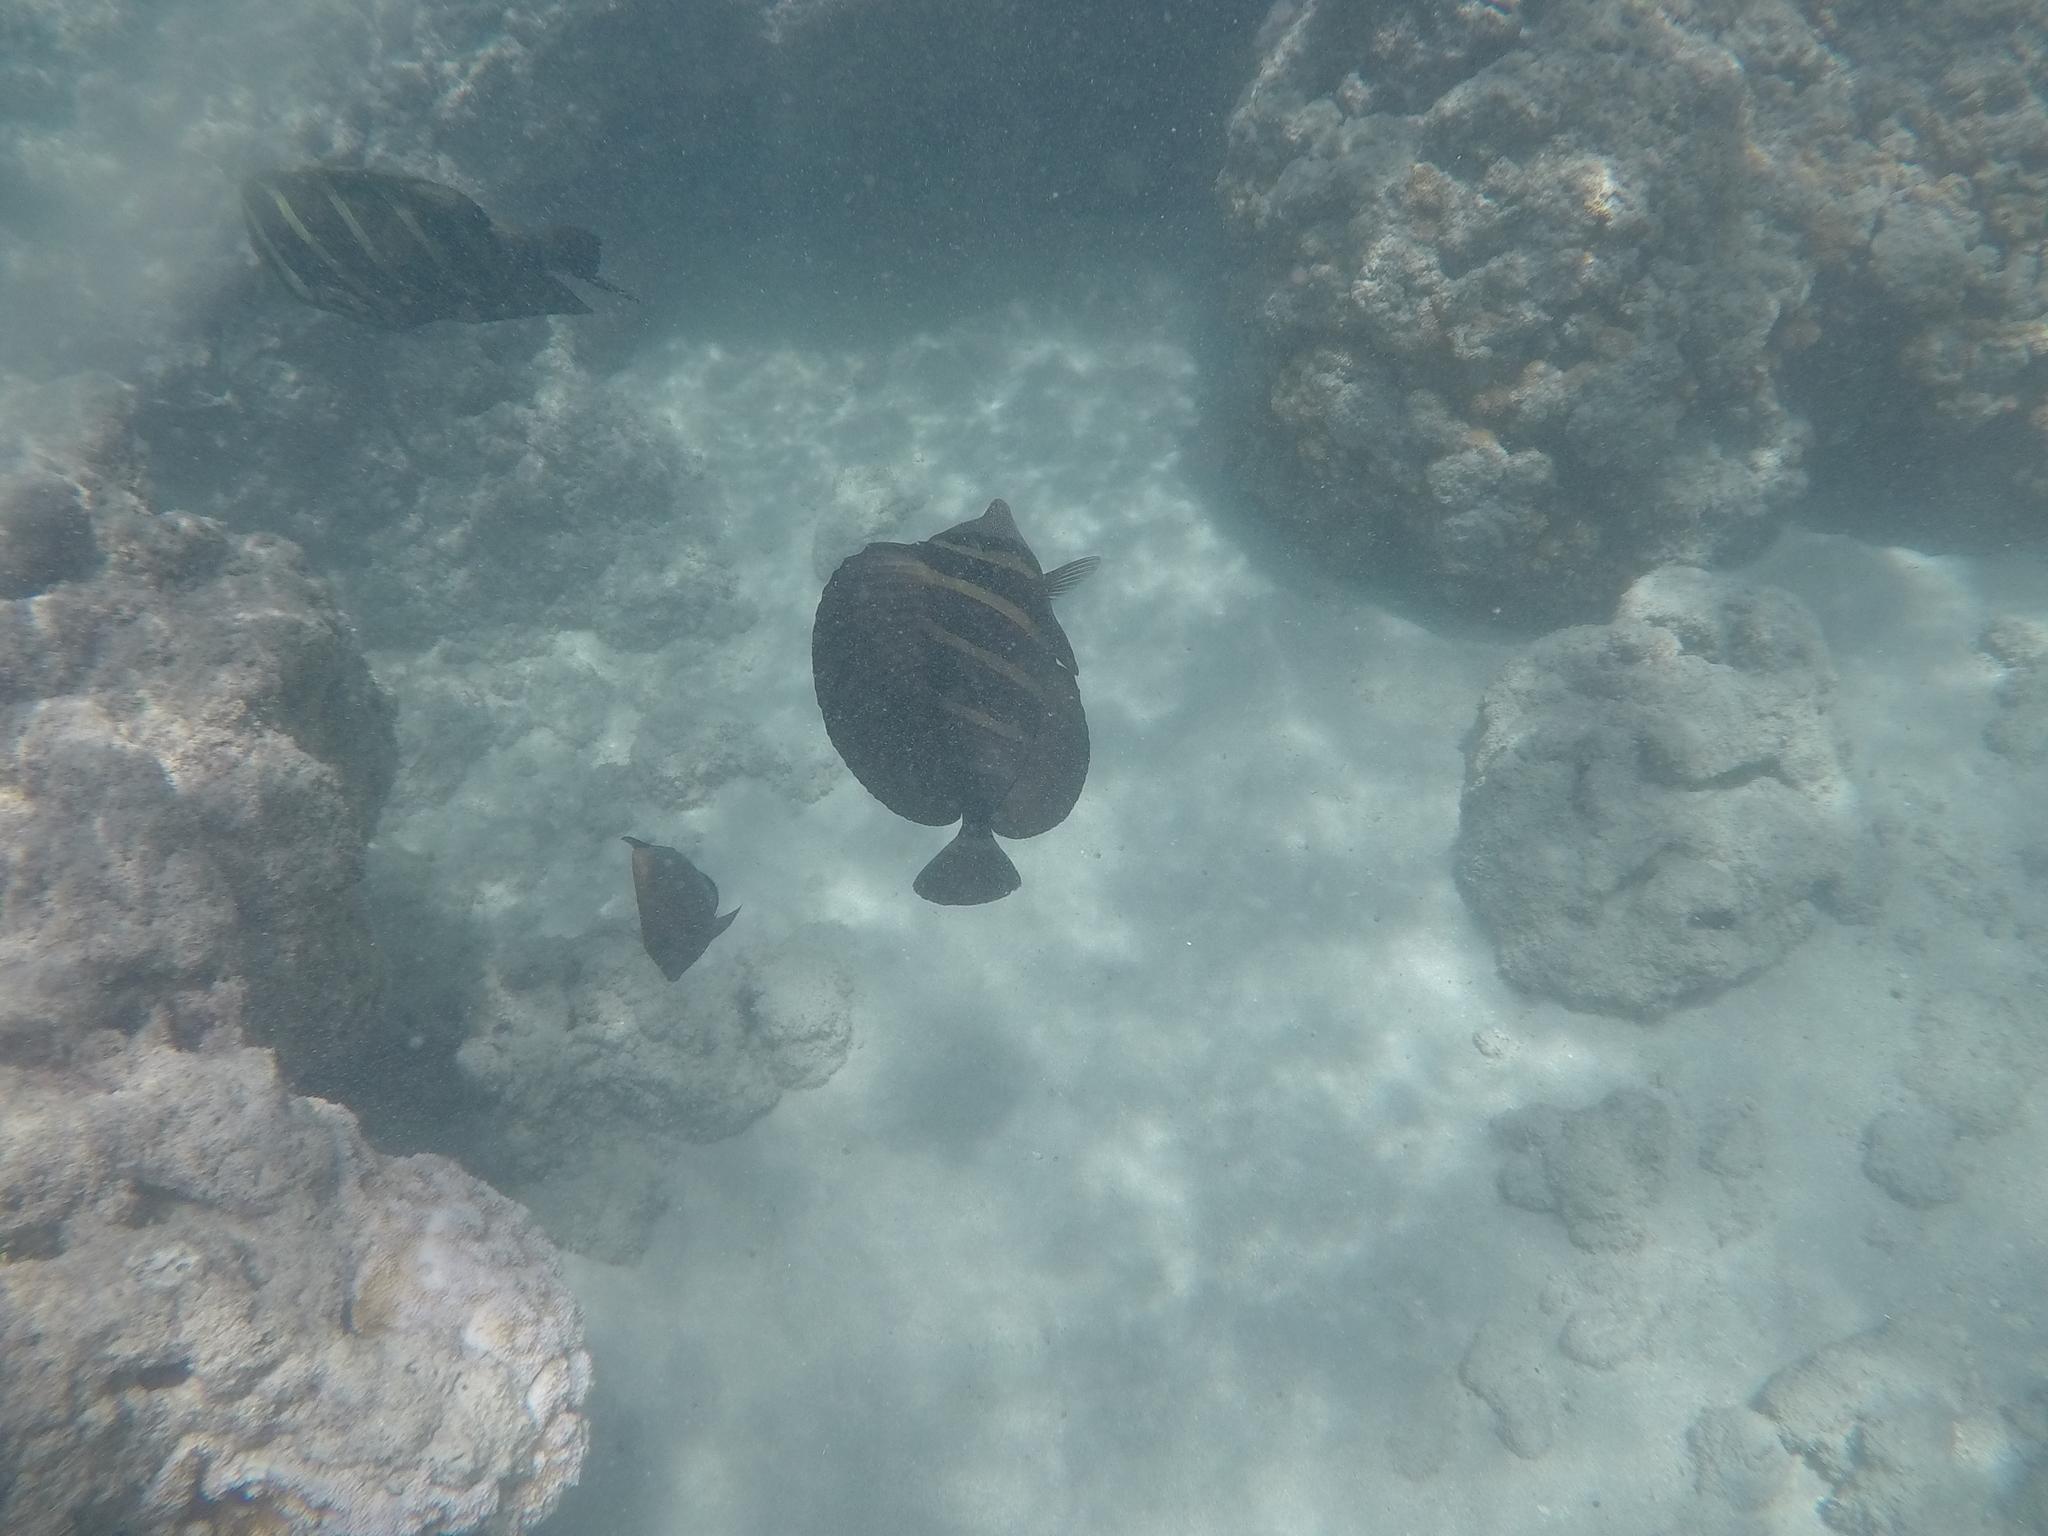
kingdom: Animalia
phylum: Chordata
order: Perciformes
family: Acanthuridae
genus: Zebrasoma
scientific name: Zebrasoma veliferum
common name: Sailfin surgeonfish
